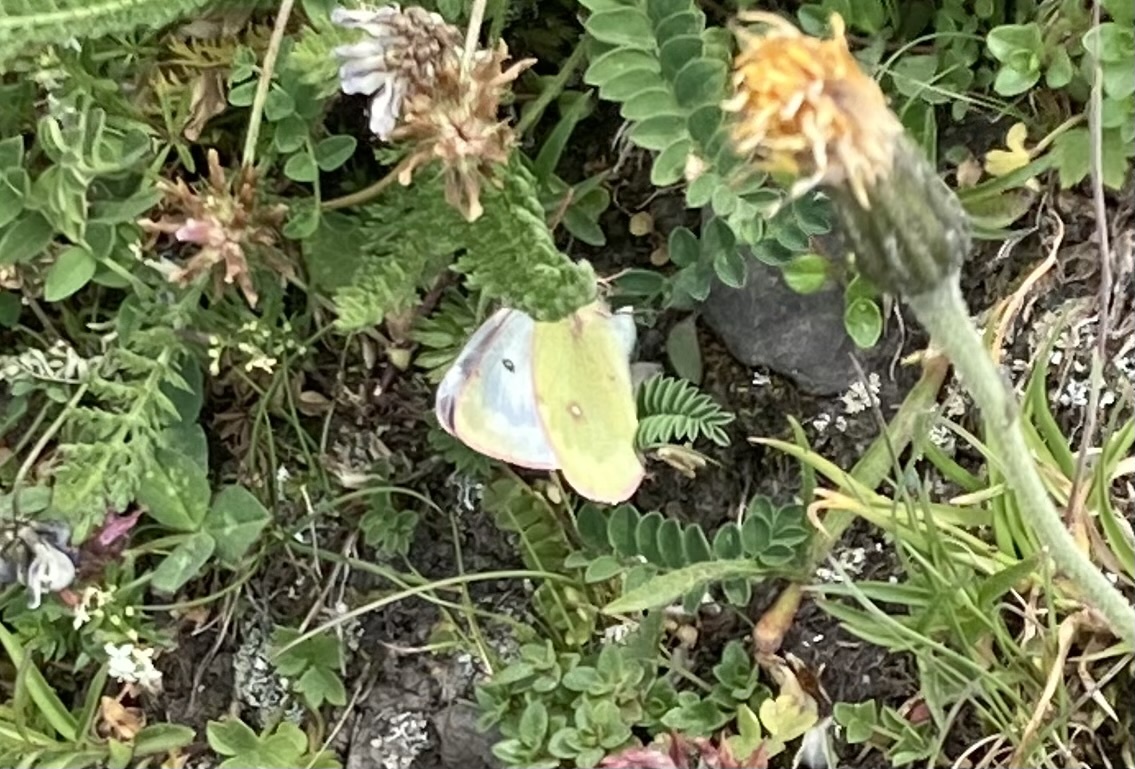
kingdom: Animalia
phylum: Arthropoda
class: Insecta
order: Lepidoptera
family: Pieridae
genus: Colias
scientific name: Colias phicomone
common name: Mountain clouded yellow
